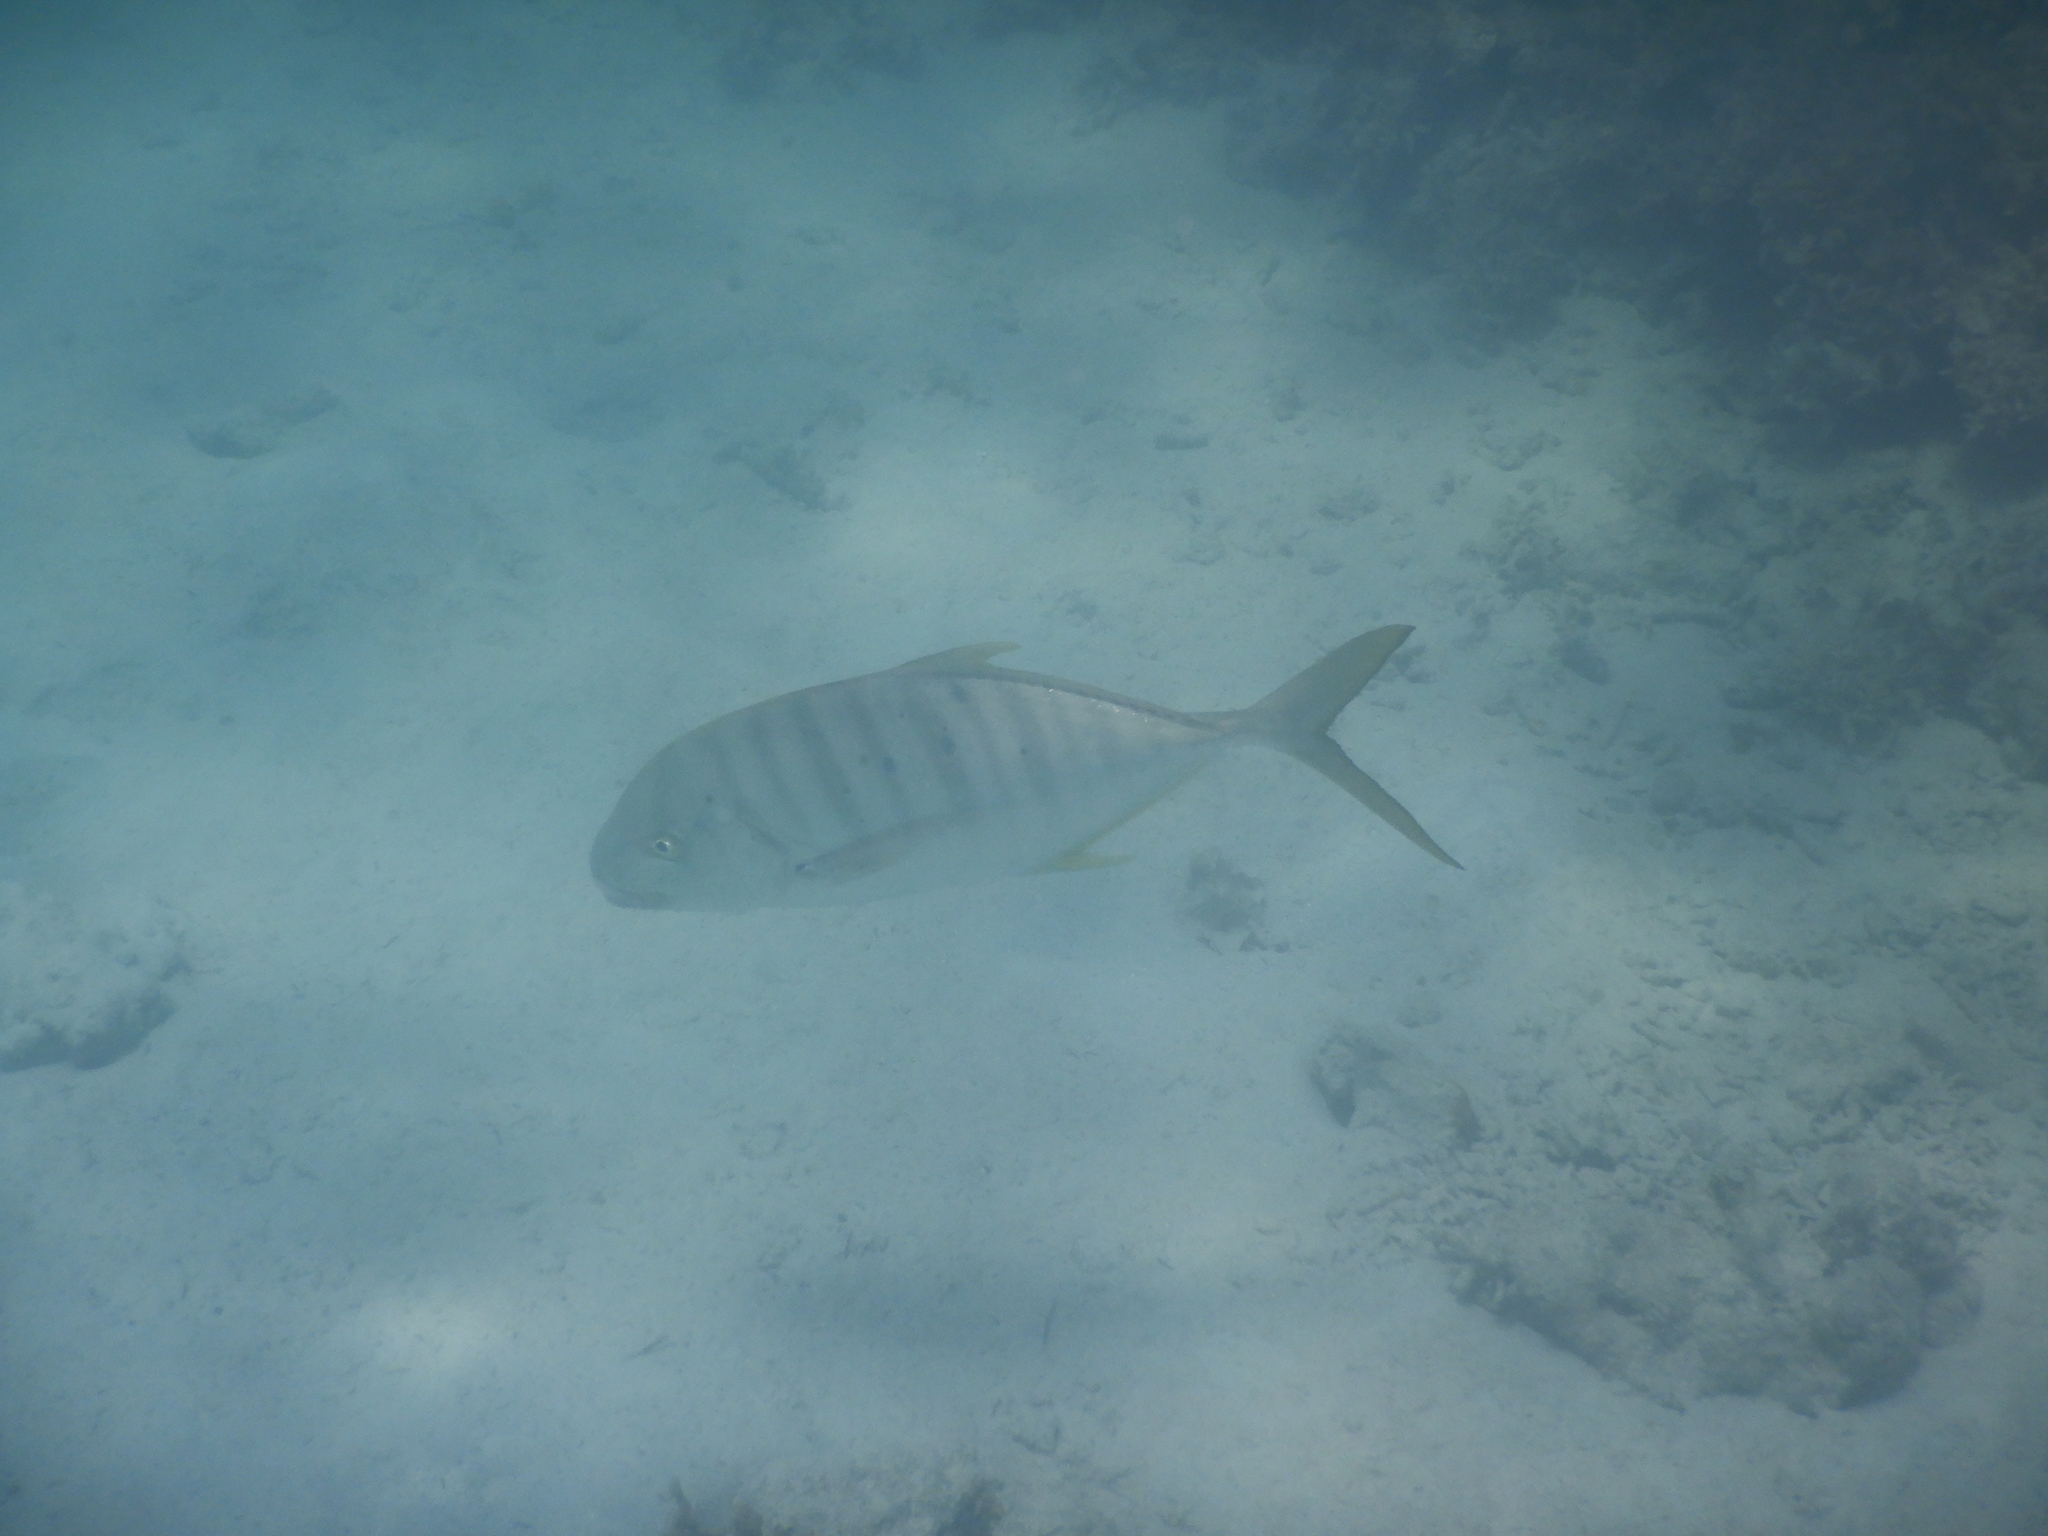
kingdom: Animalia
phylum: Chordata
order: Perciformes
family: Carangidae
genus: Gnathanodon
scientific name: Gnathanodon speciosus
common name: Golden toothless trevally
